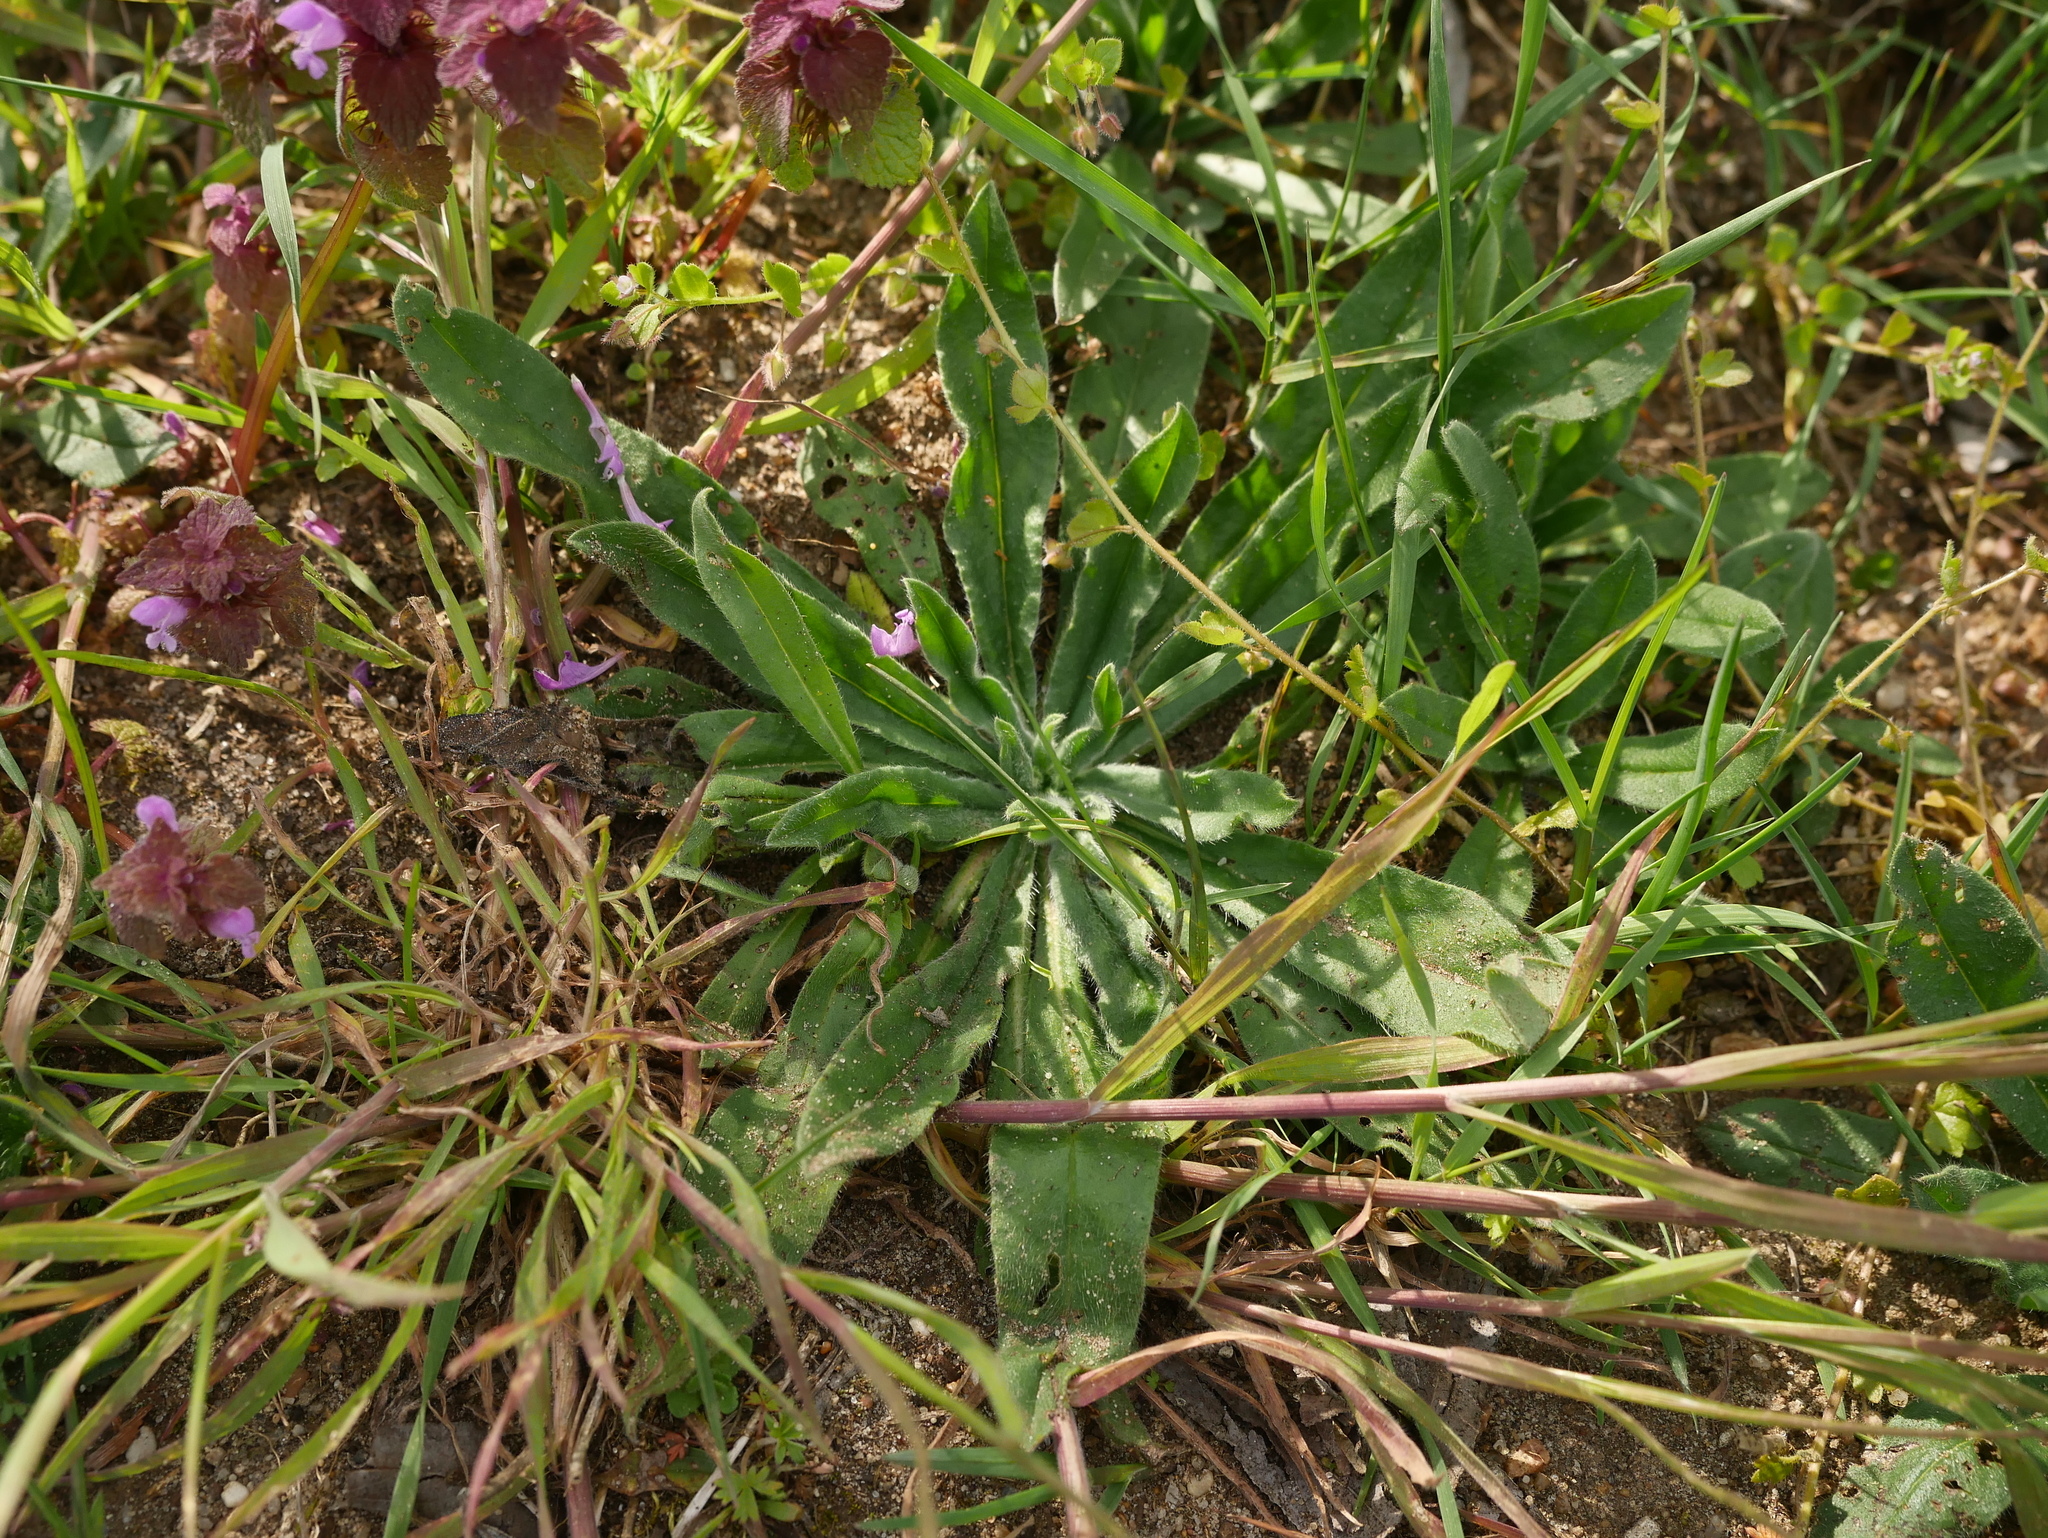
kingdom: Plantae
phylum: Tracheophyta
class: Magnoliopsida
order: Boraginales
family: Boraginaceae
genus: Echium
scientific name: Echium vulgare
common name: Common viper's bugloss
